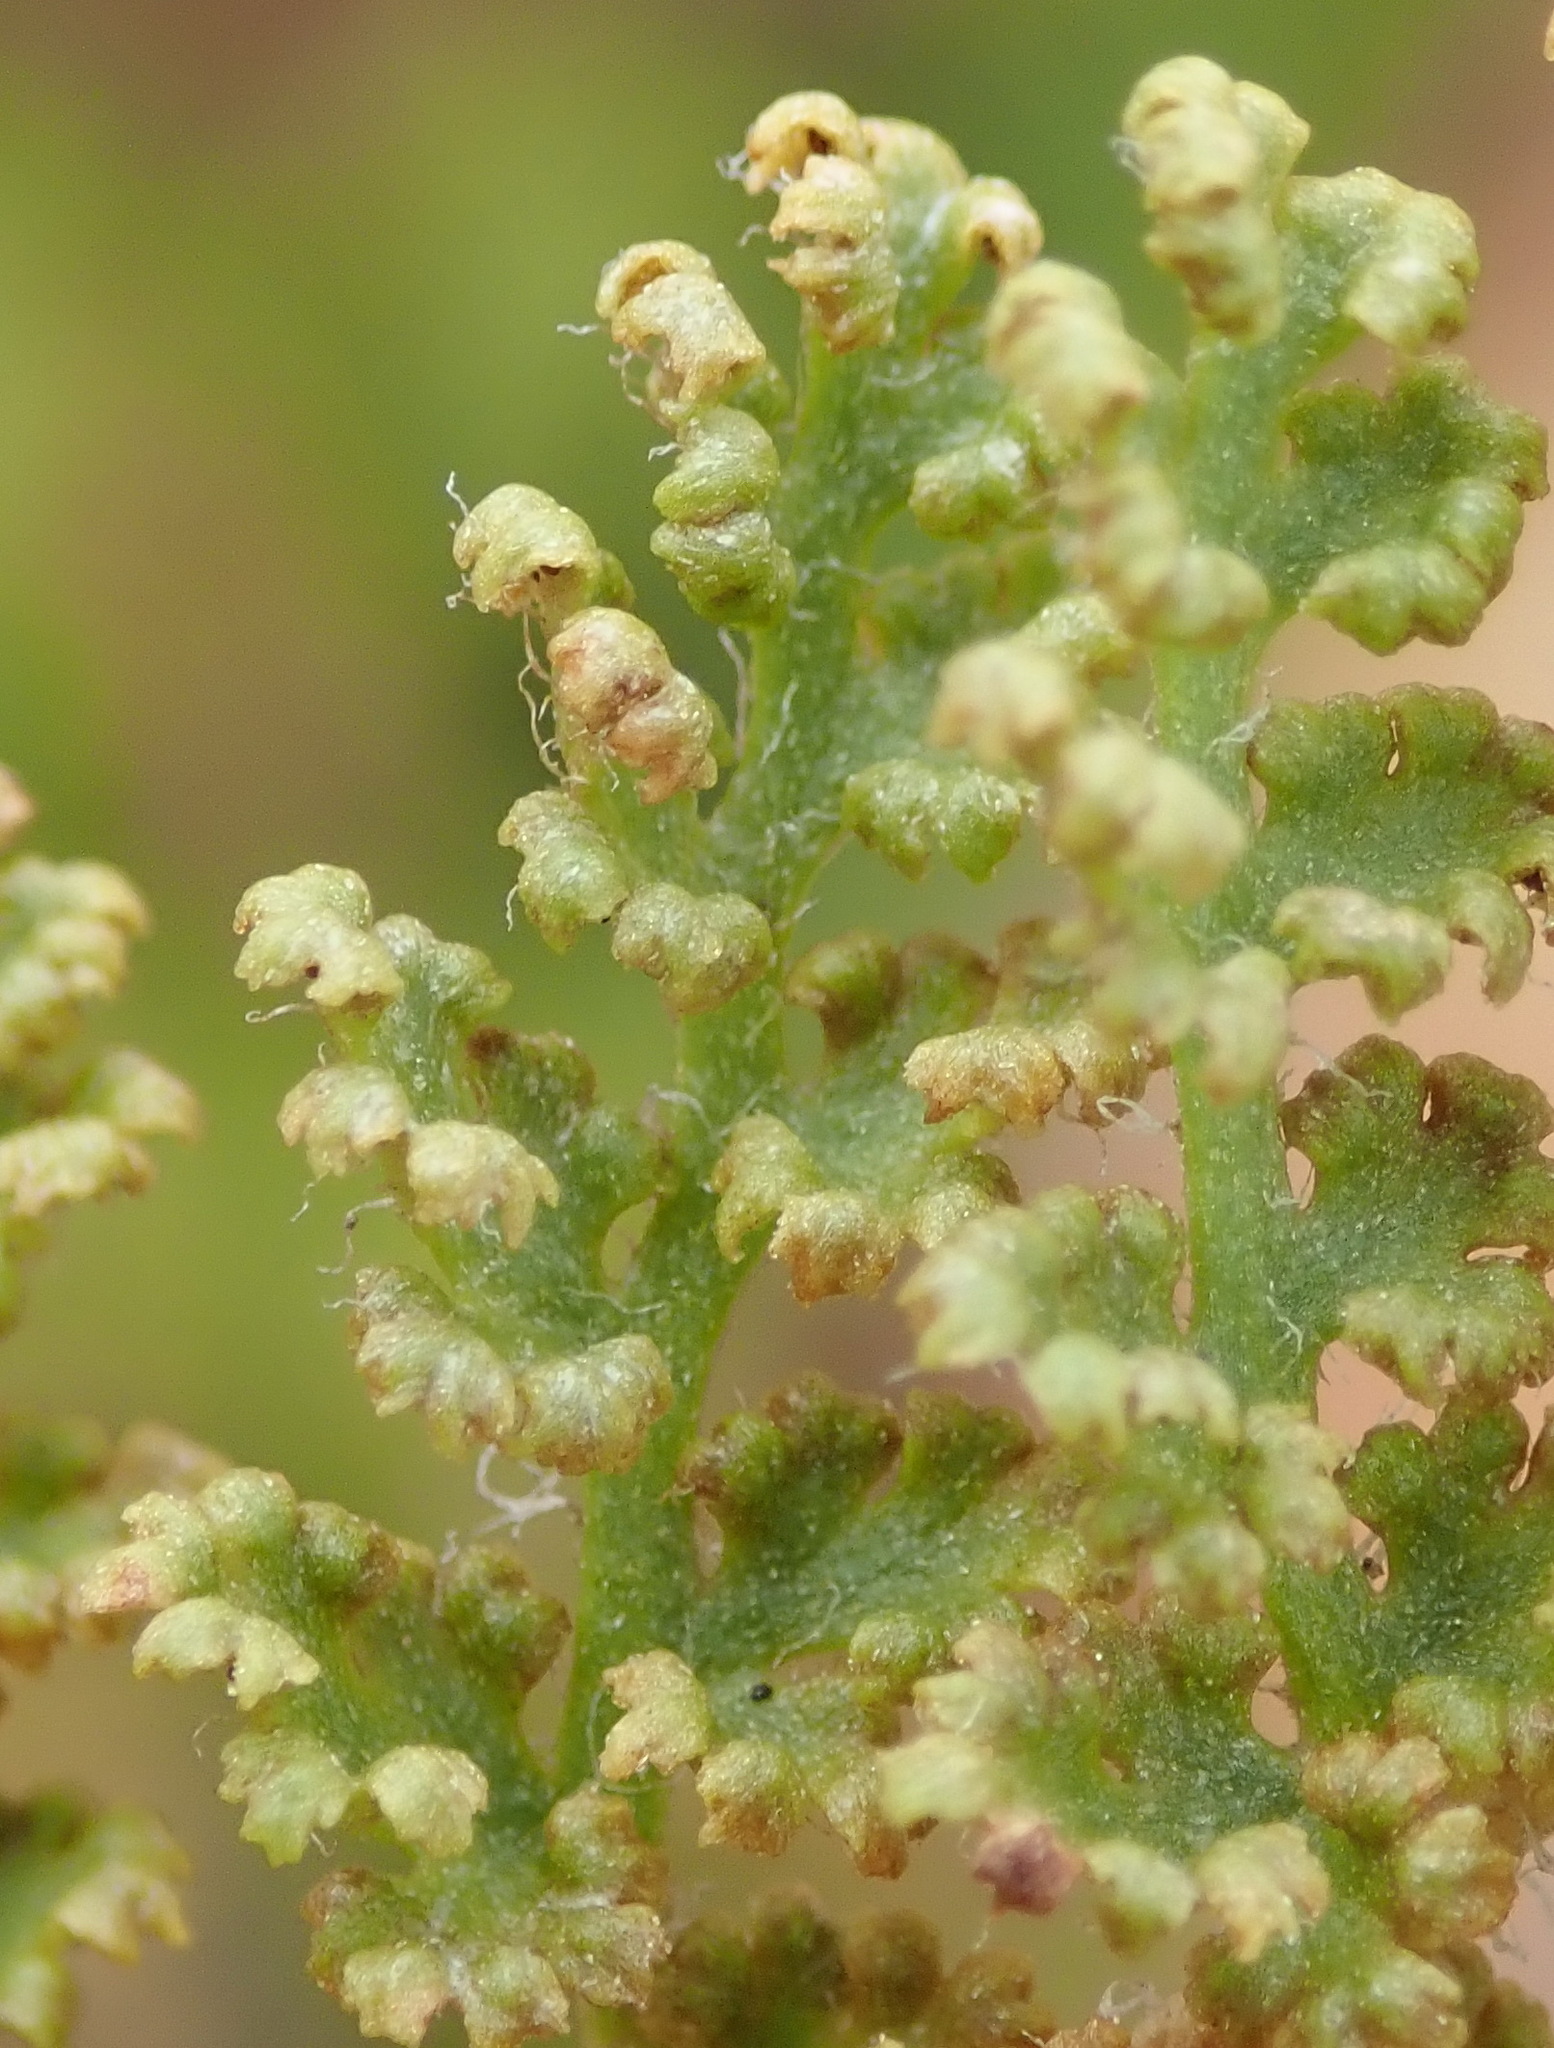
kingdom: Plantae
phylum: Tracheophyta
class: Polypodiopsida
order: Schizaeales
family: Anemiaceae
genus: Anemia
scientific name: Anemia caffrorum
